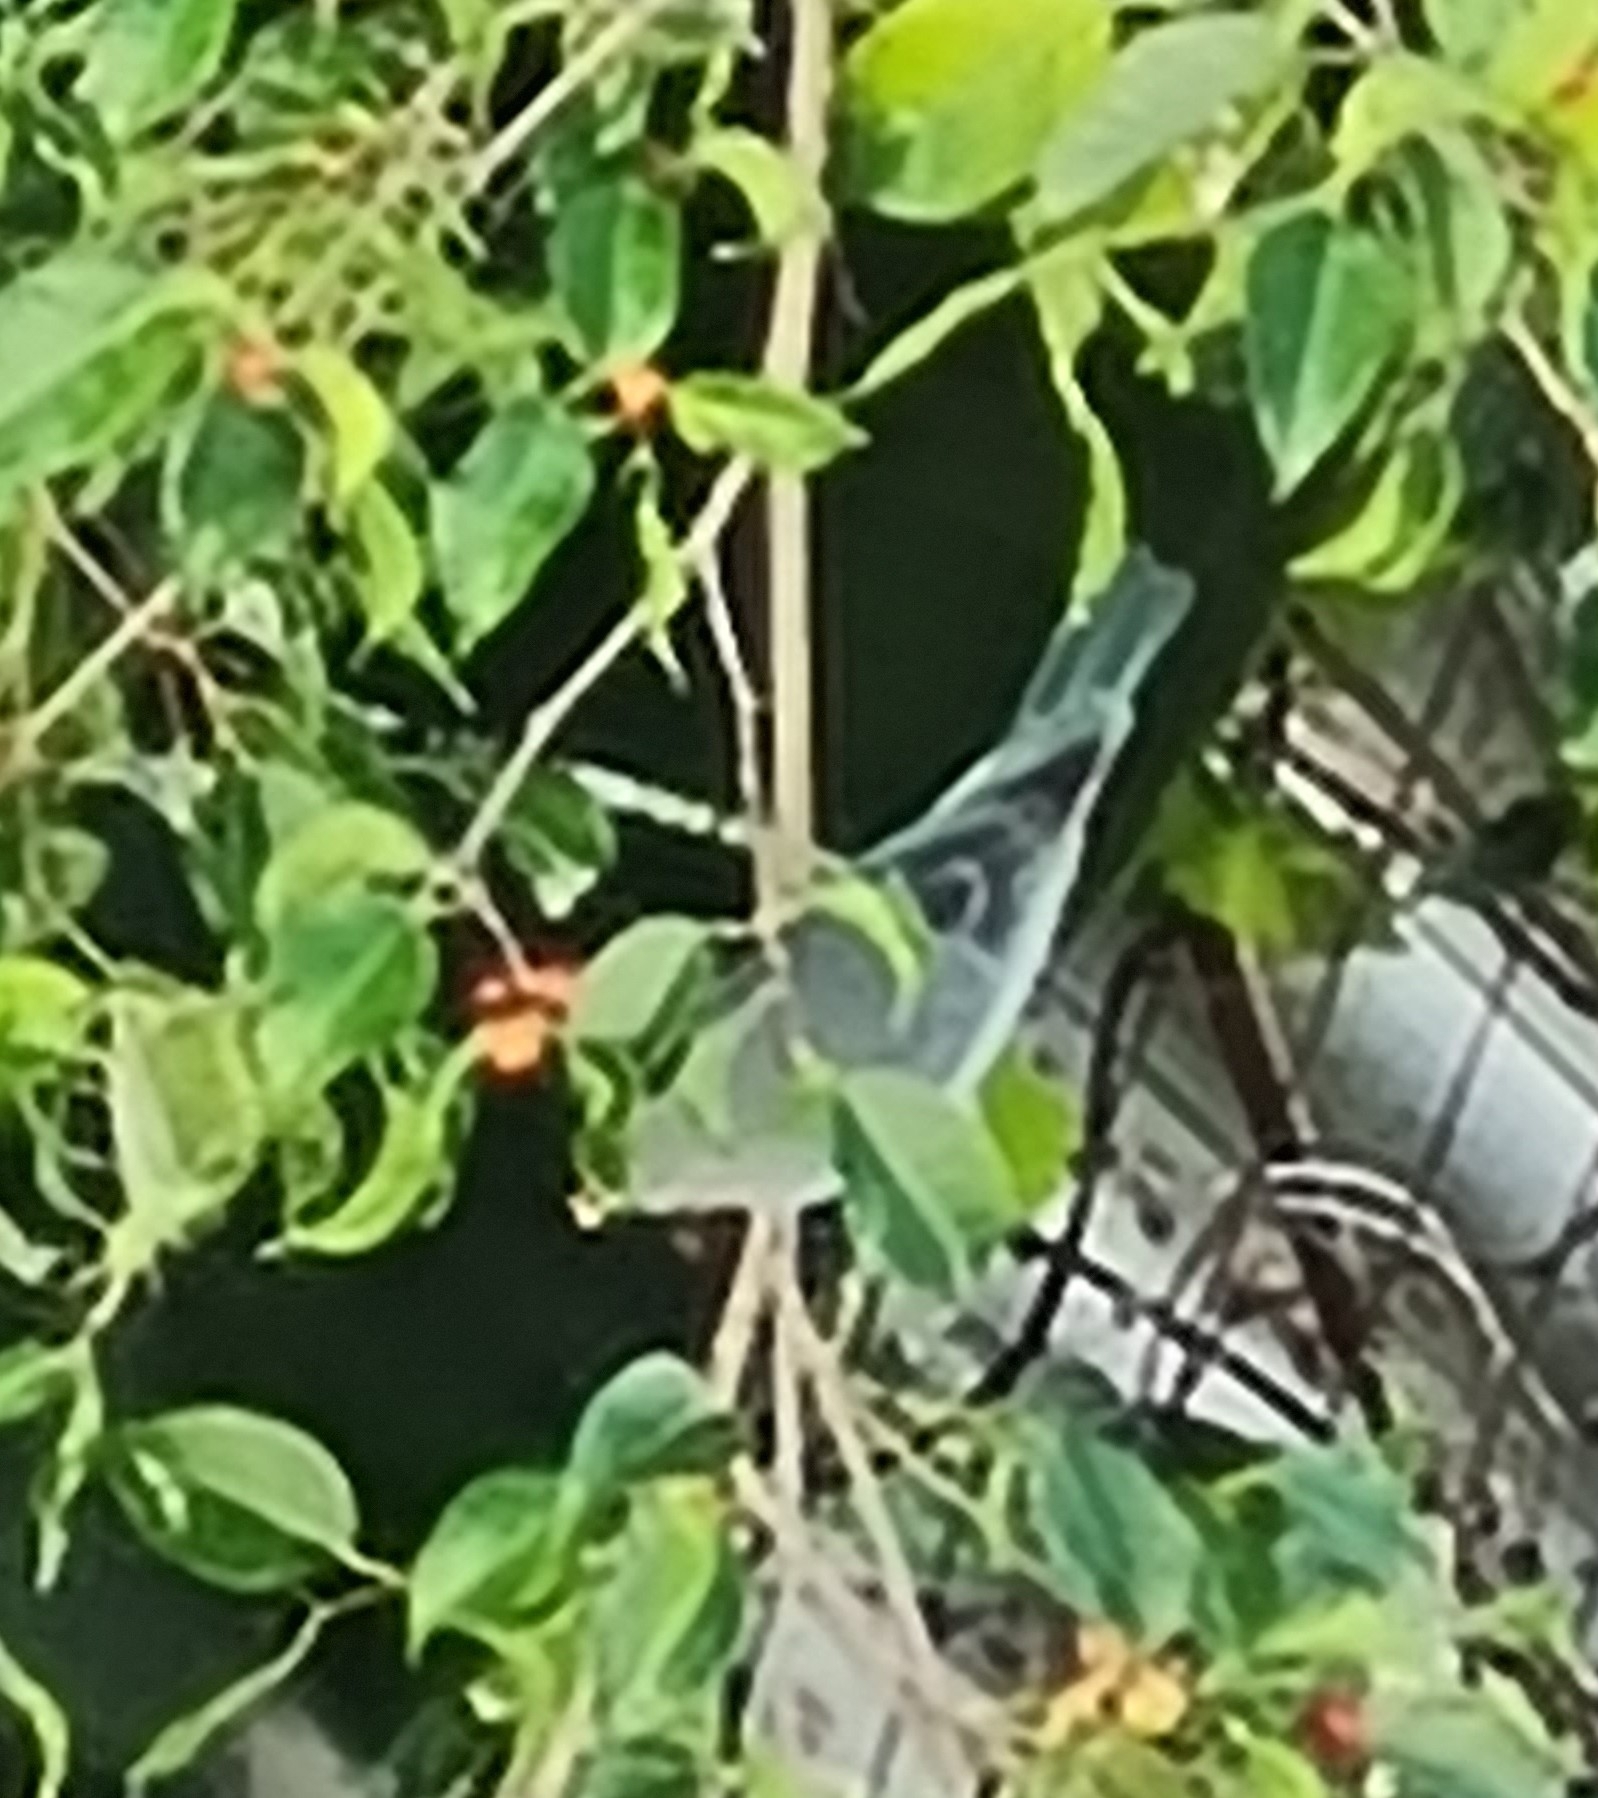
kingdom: Animalia
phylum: Chordata
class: Aves
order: Passeriformes
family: Thraupidae
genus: Thraupis
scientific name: Thraupis sayaca
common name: Sayaca tanager
